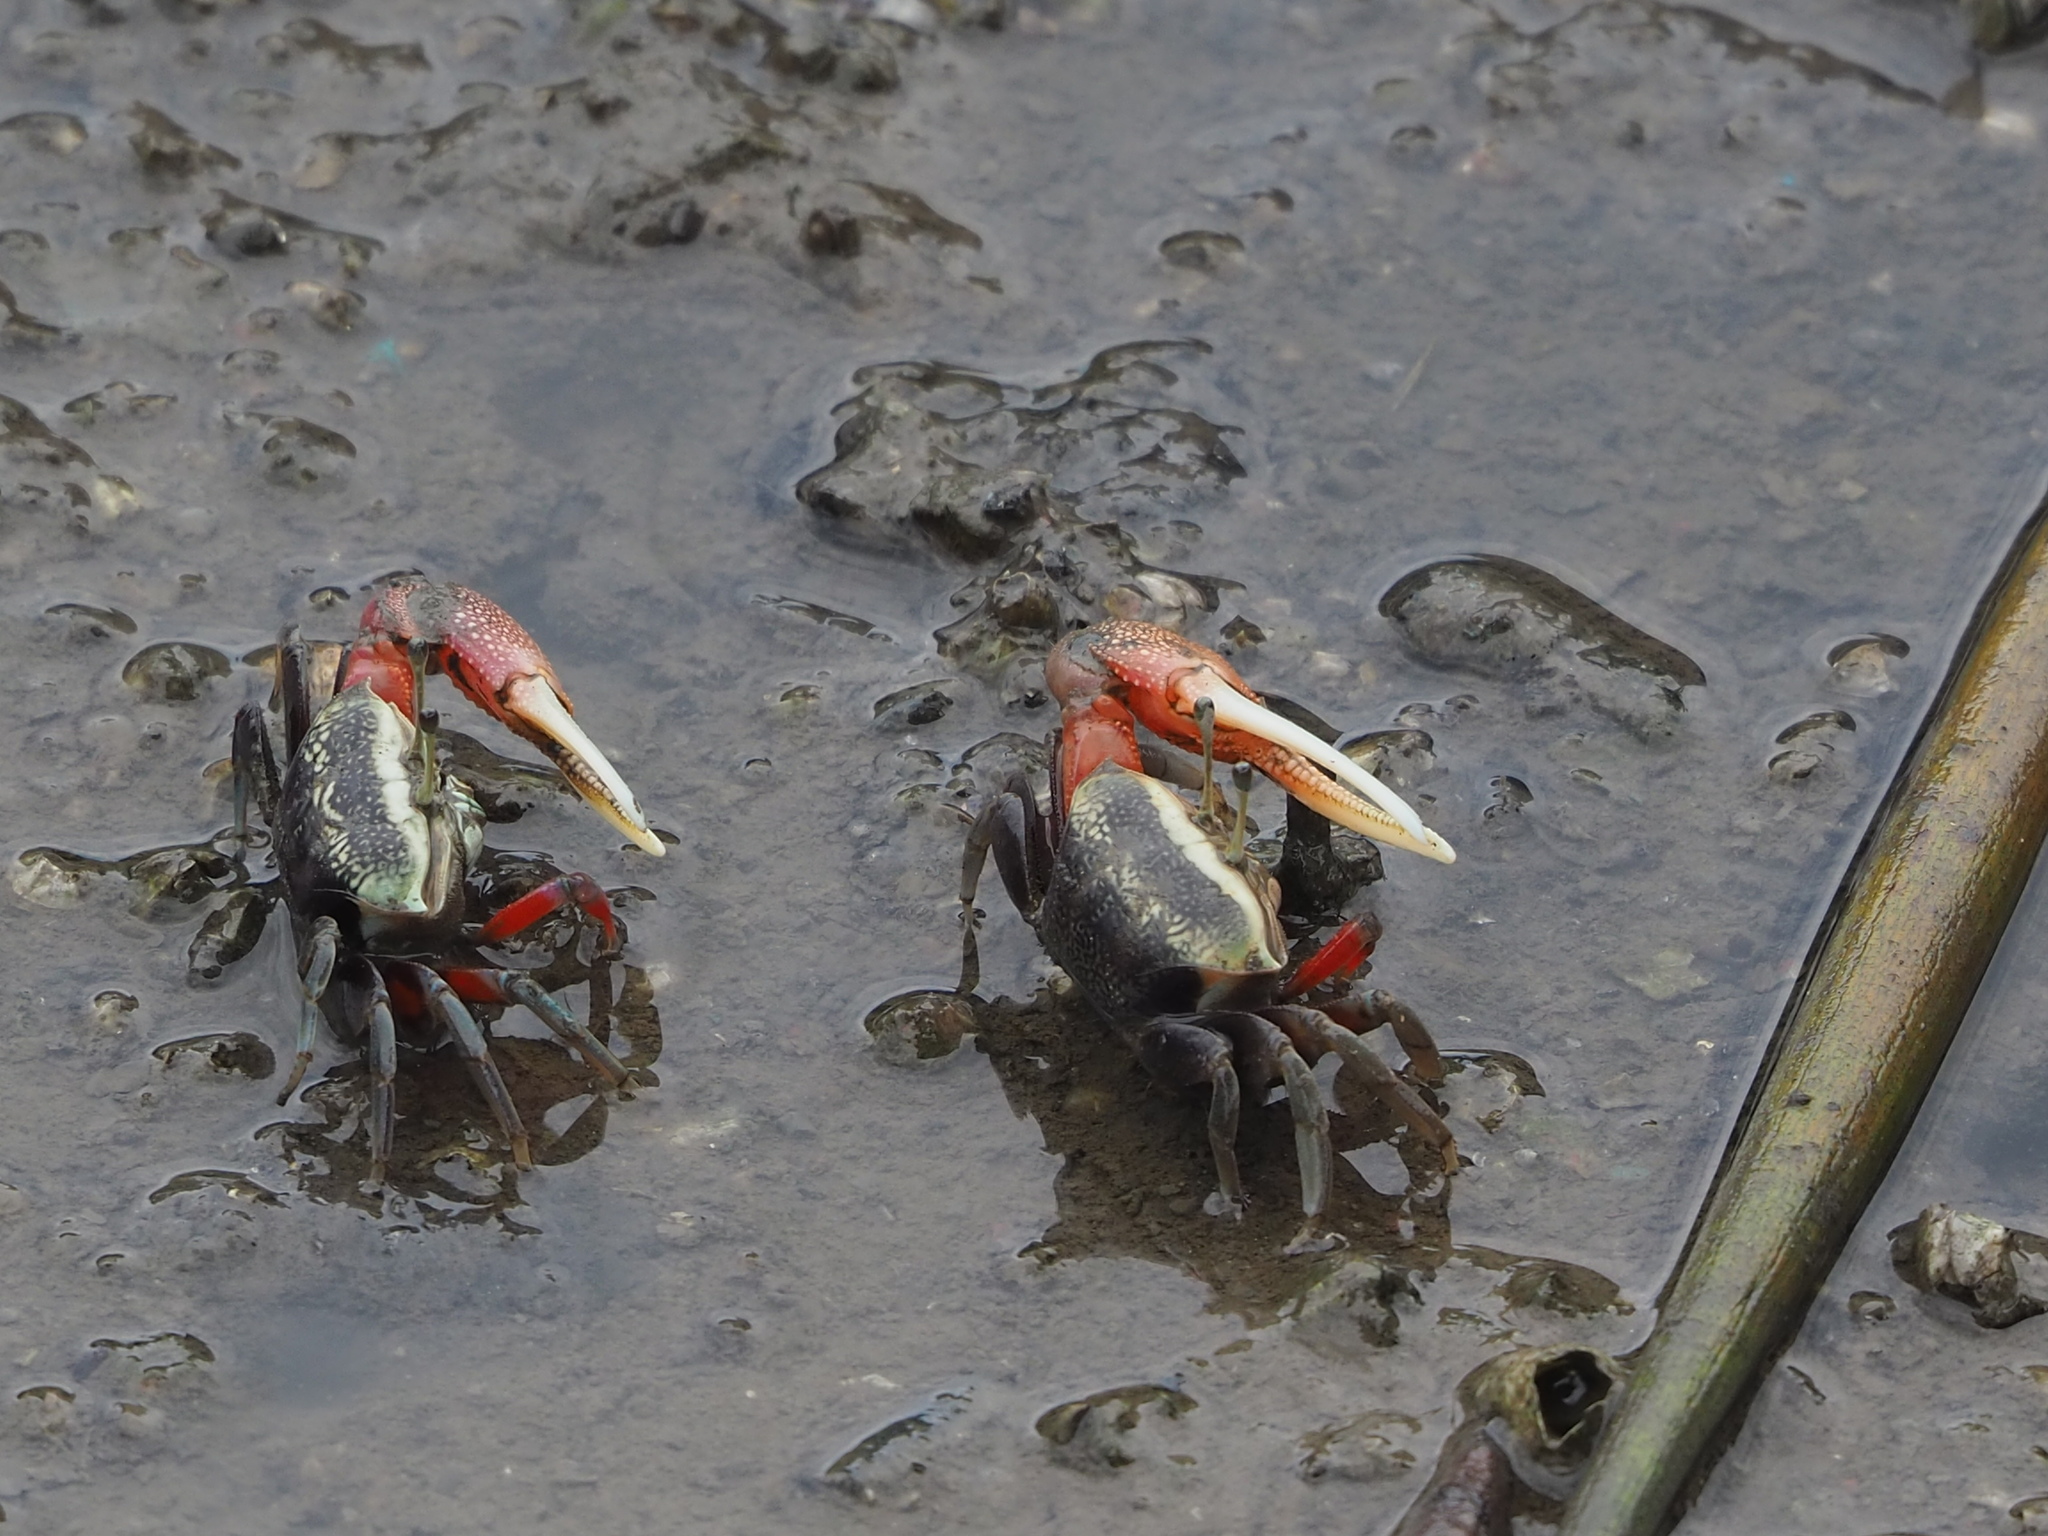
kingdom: Animalia
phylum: Arthropoda
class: Malacostraca
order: Decapoda
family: Ocypodidae
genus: Tubuca
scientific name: Tubuca arcuata
